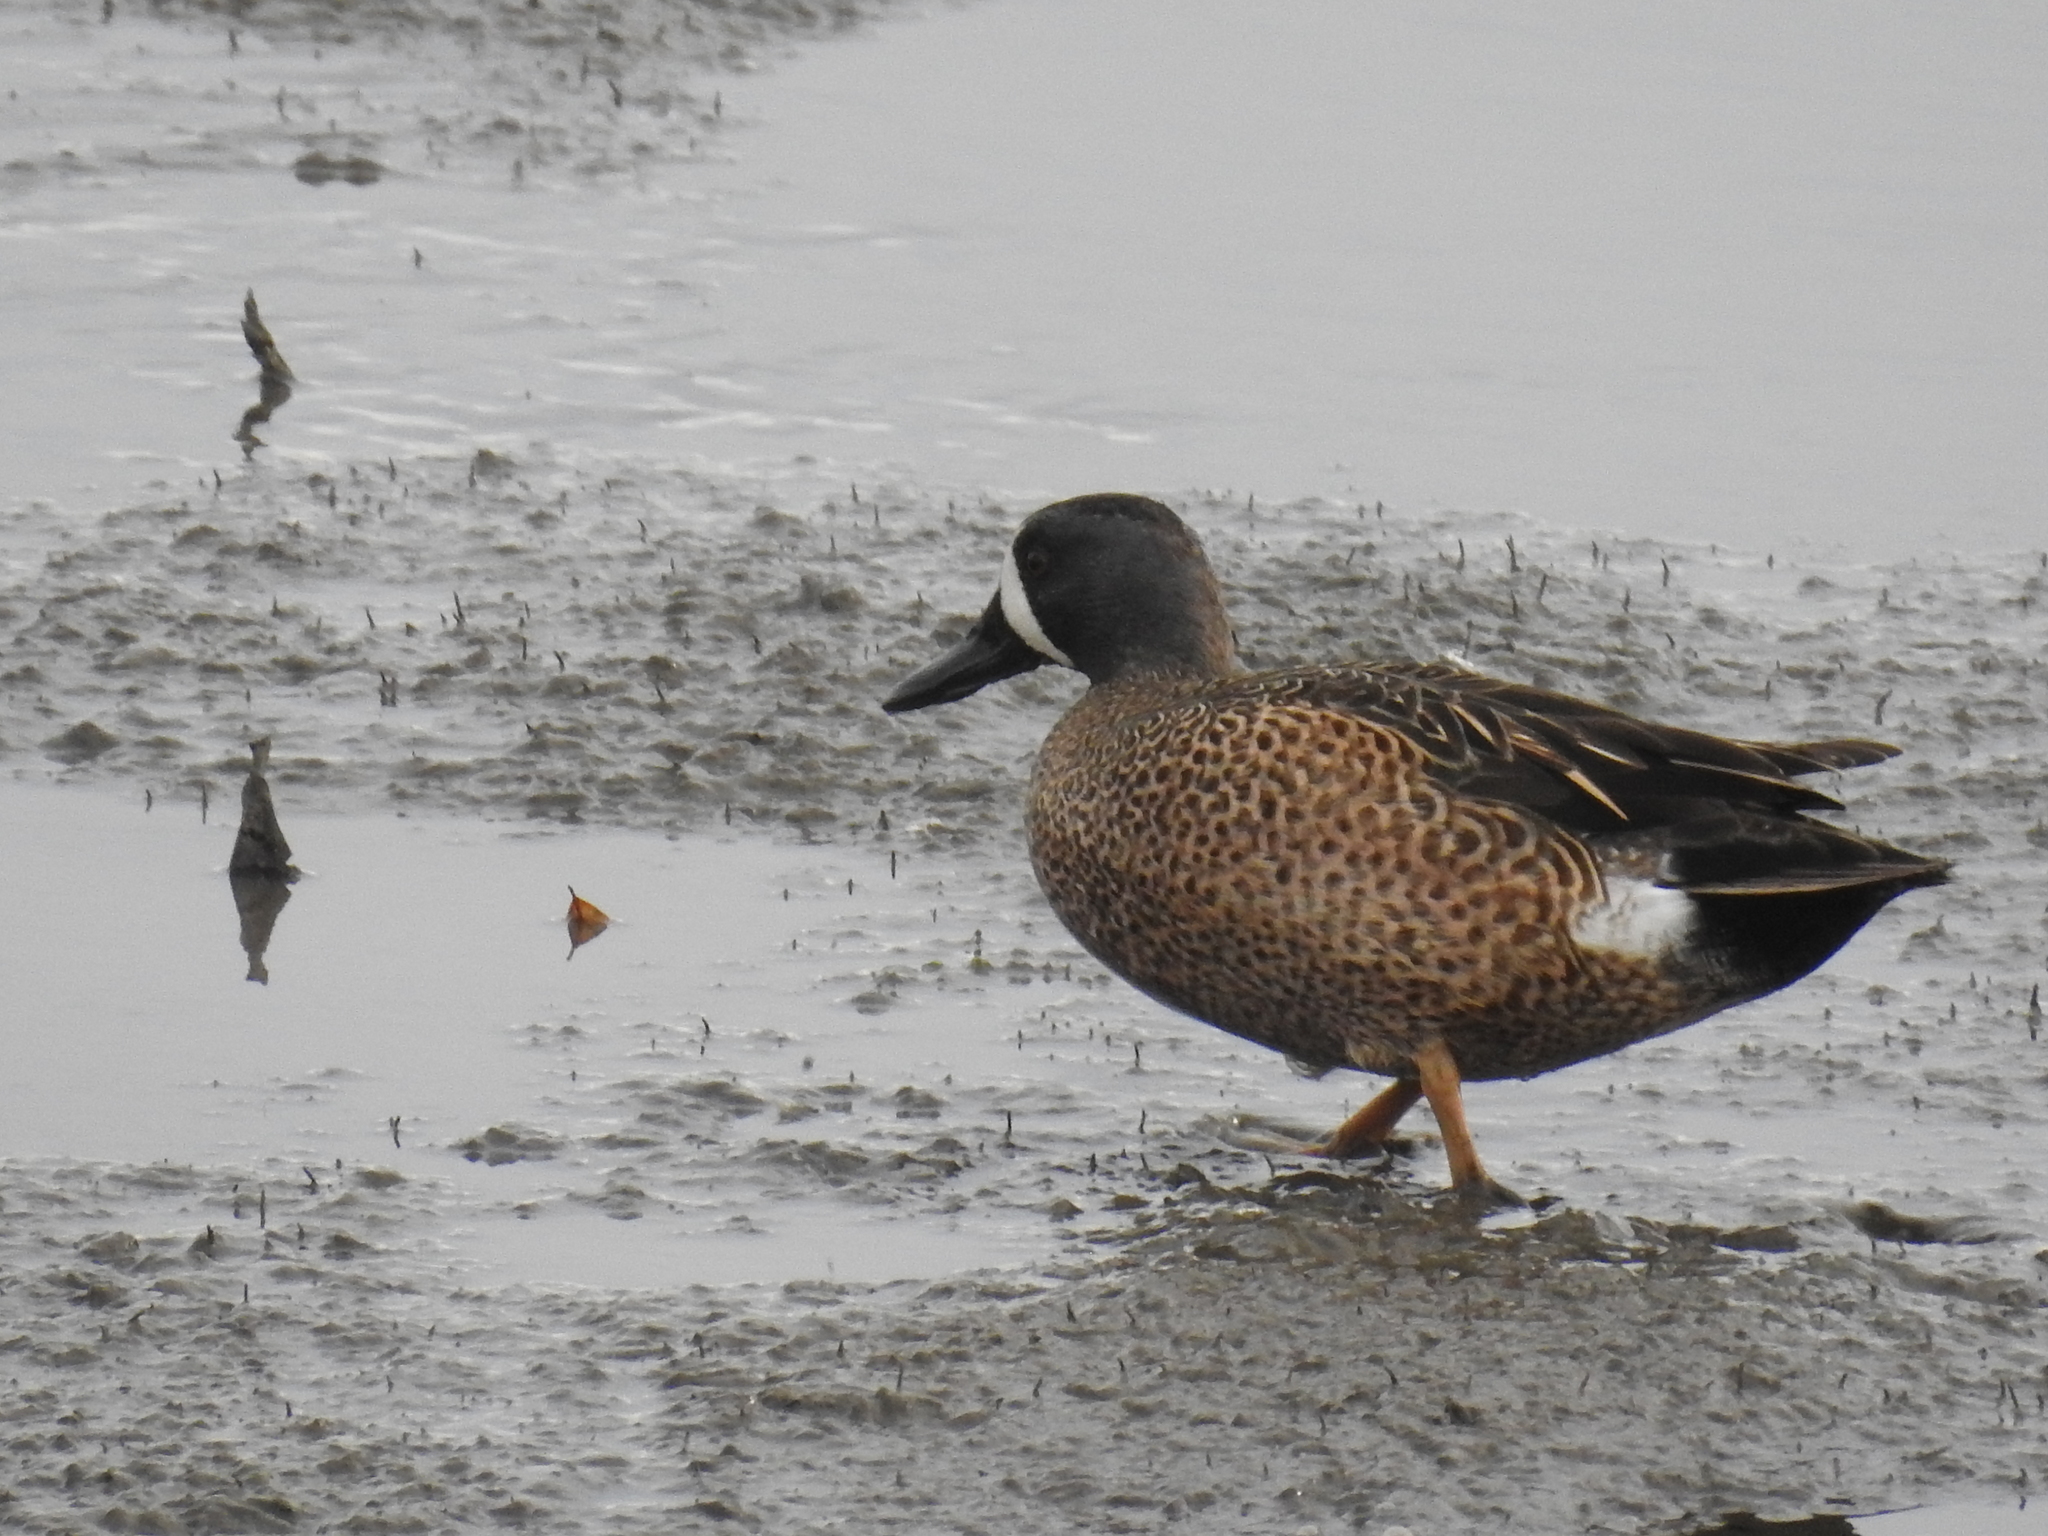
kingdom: Animalia
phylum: Chordata
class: Aves
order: Anseriformes
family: Anatidae
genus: Spatula
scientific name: Spatula discors
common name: Blue-winged teal
